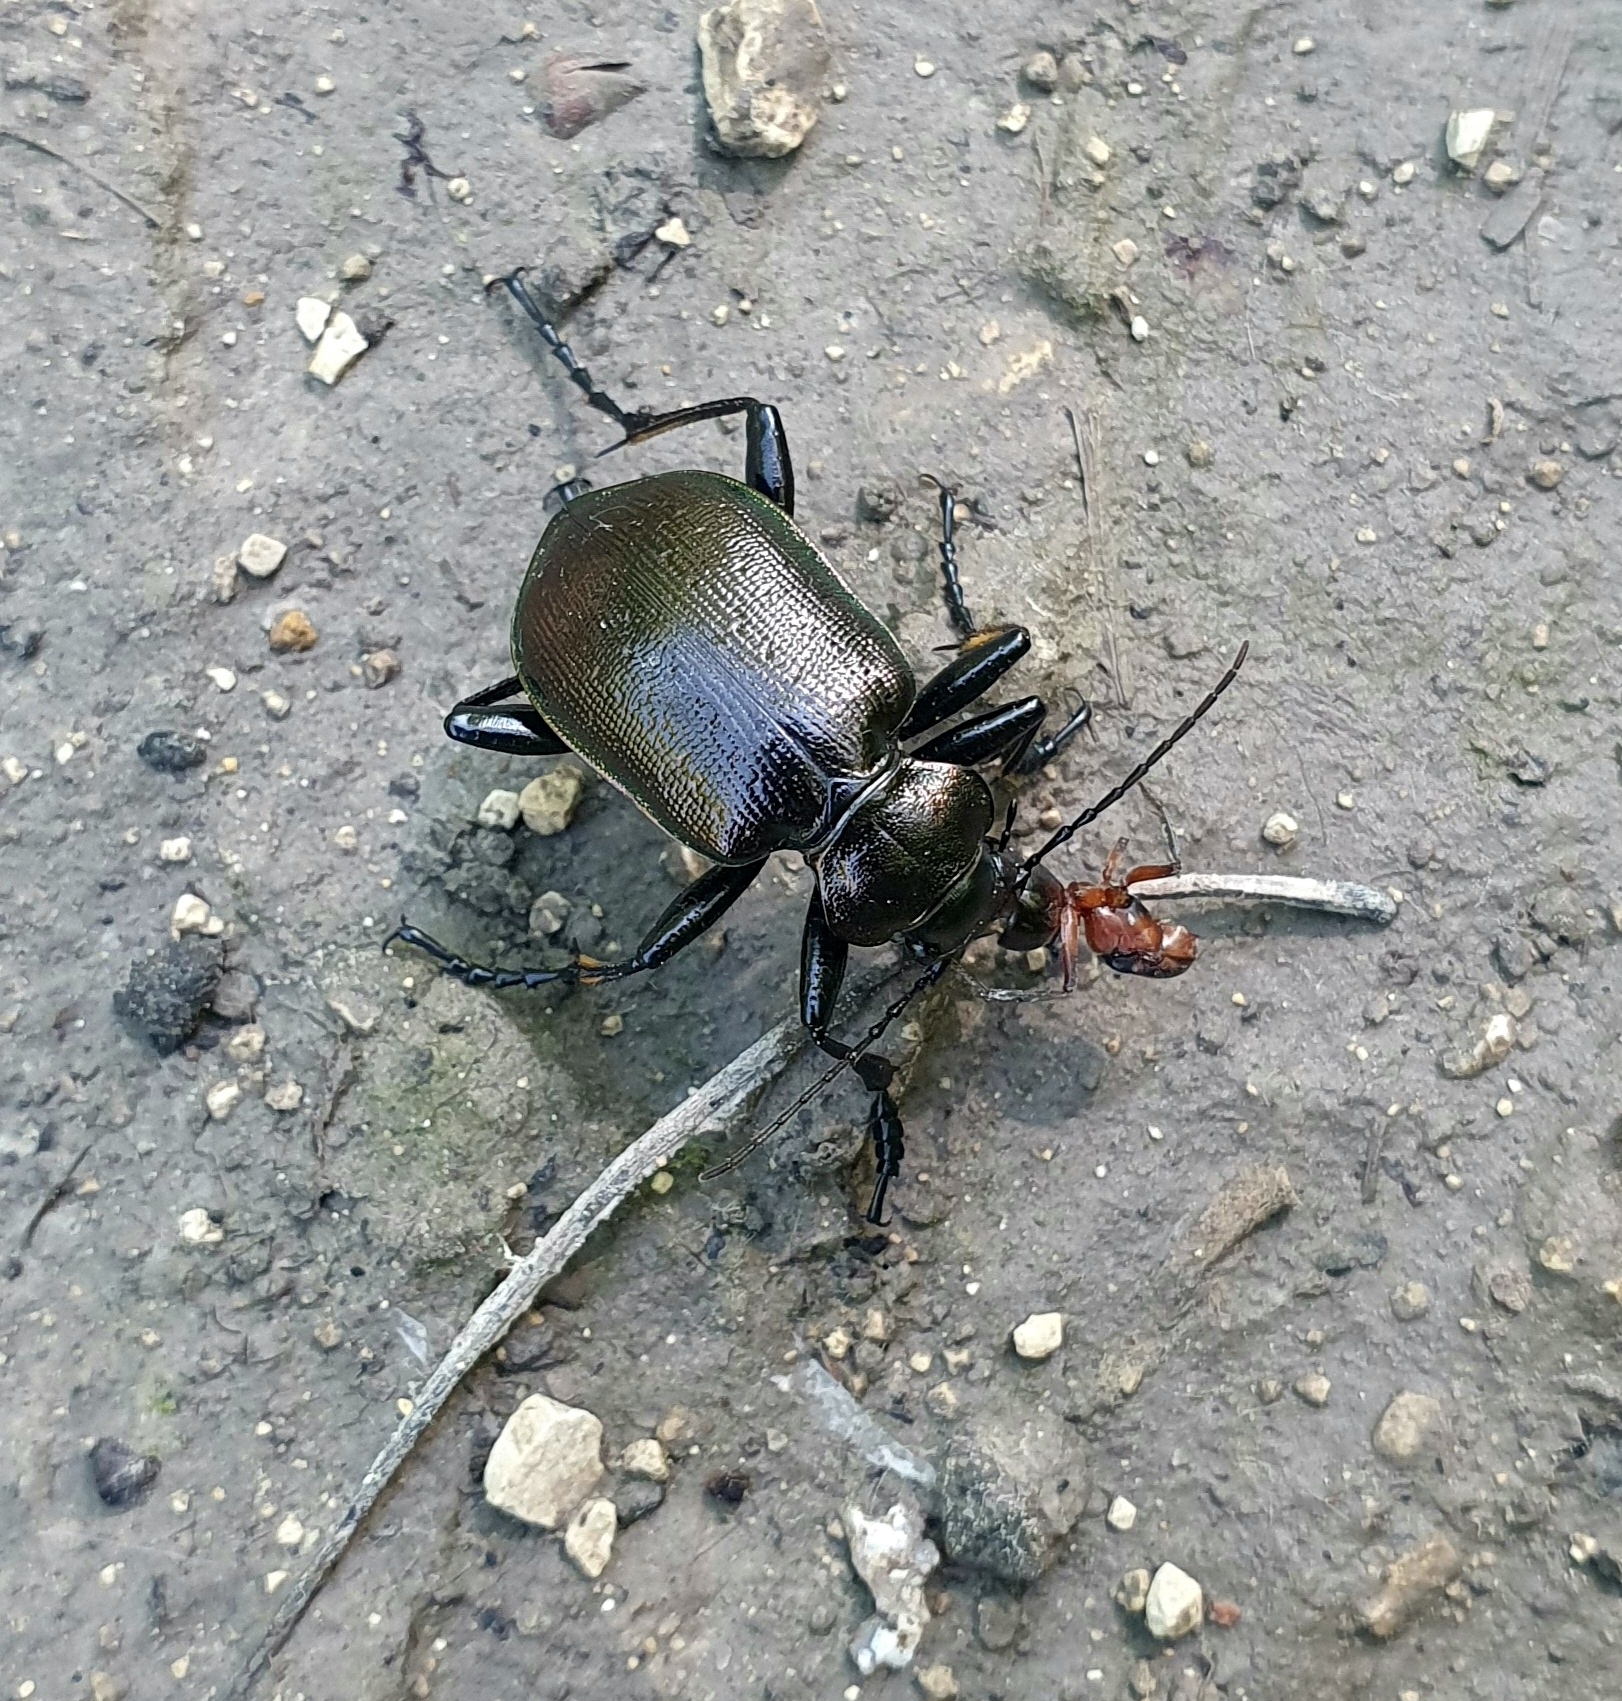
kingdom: Animalia
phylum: Arthropoda
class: Insecta
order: Coleoptera
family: Carabidae
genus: Calosoma
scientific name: Calosoma inquisitor
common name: Caterpillar-hunter
